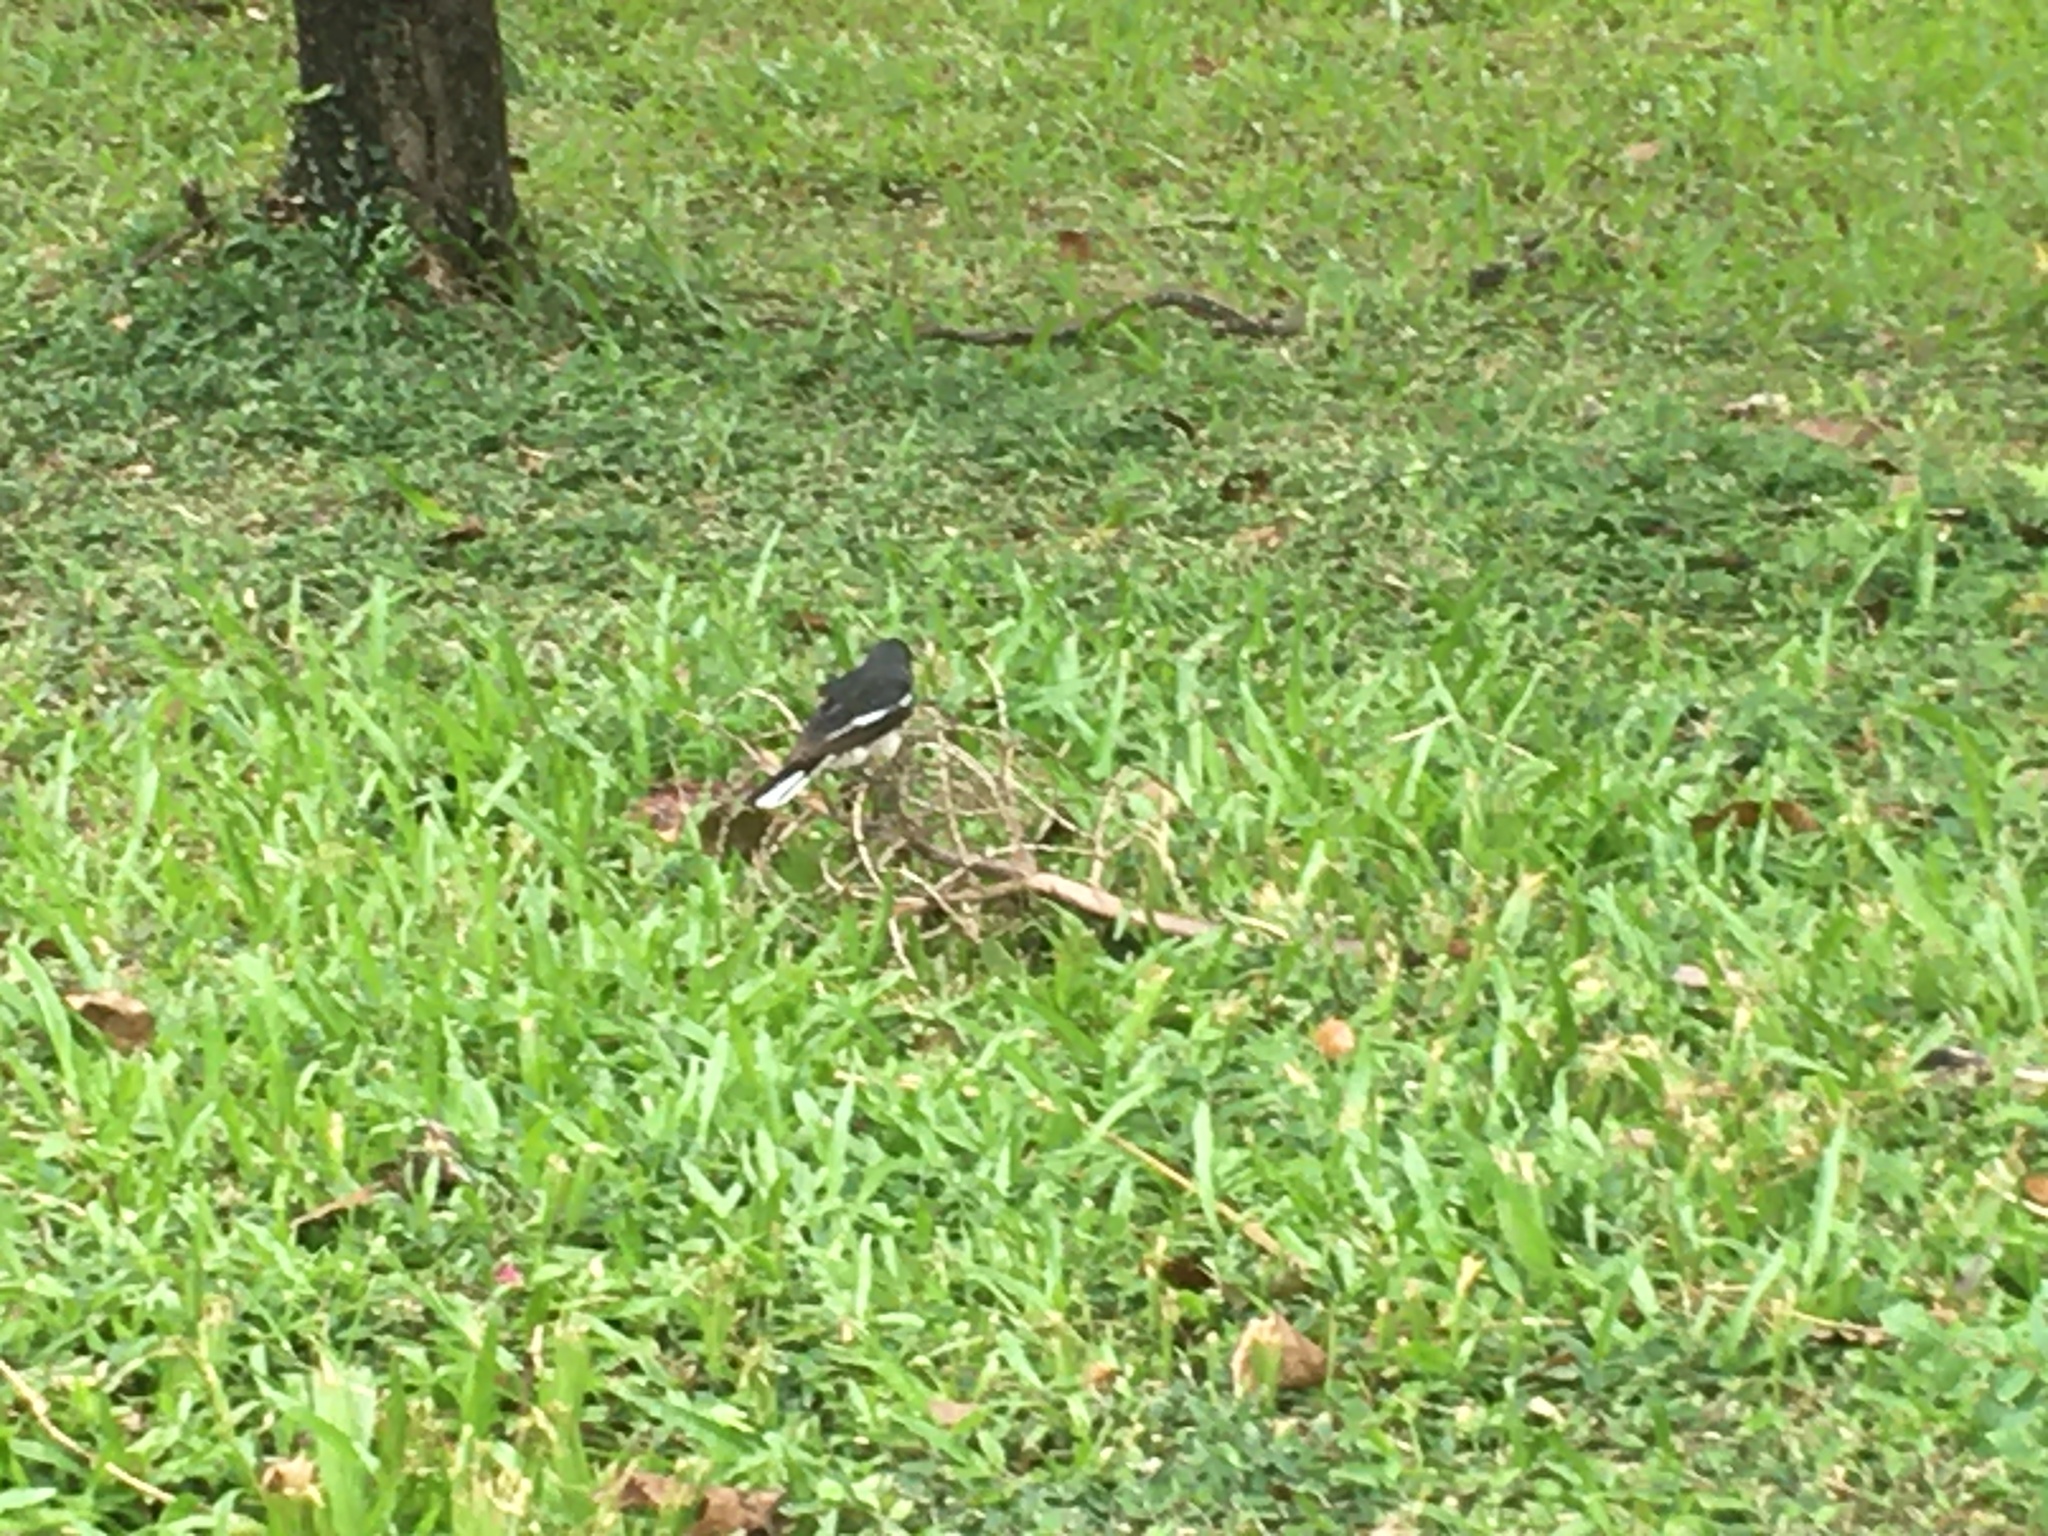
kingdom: Animalia
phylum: Chordata
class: Aves
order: Passeriformes
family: Muscicapidae
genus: Copsychus
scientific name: Copsychus saularis
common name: Oriental magpie-robin
